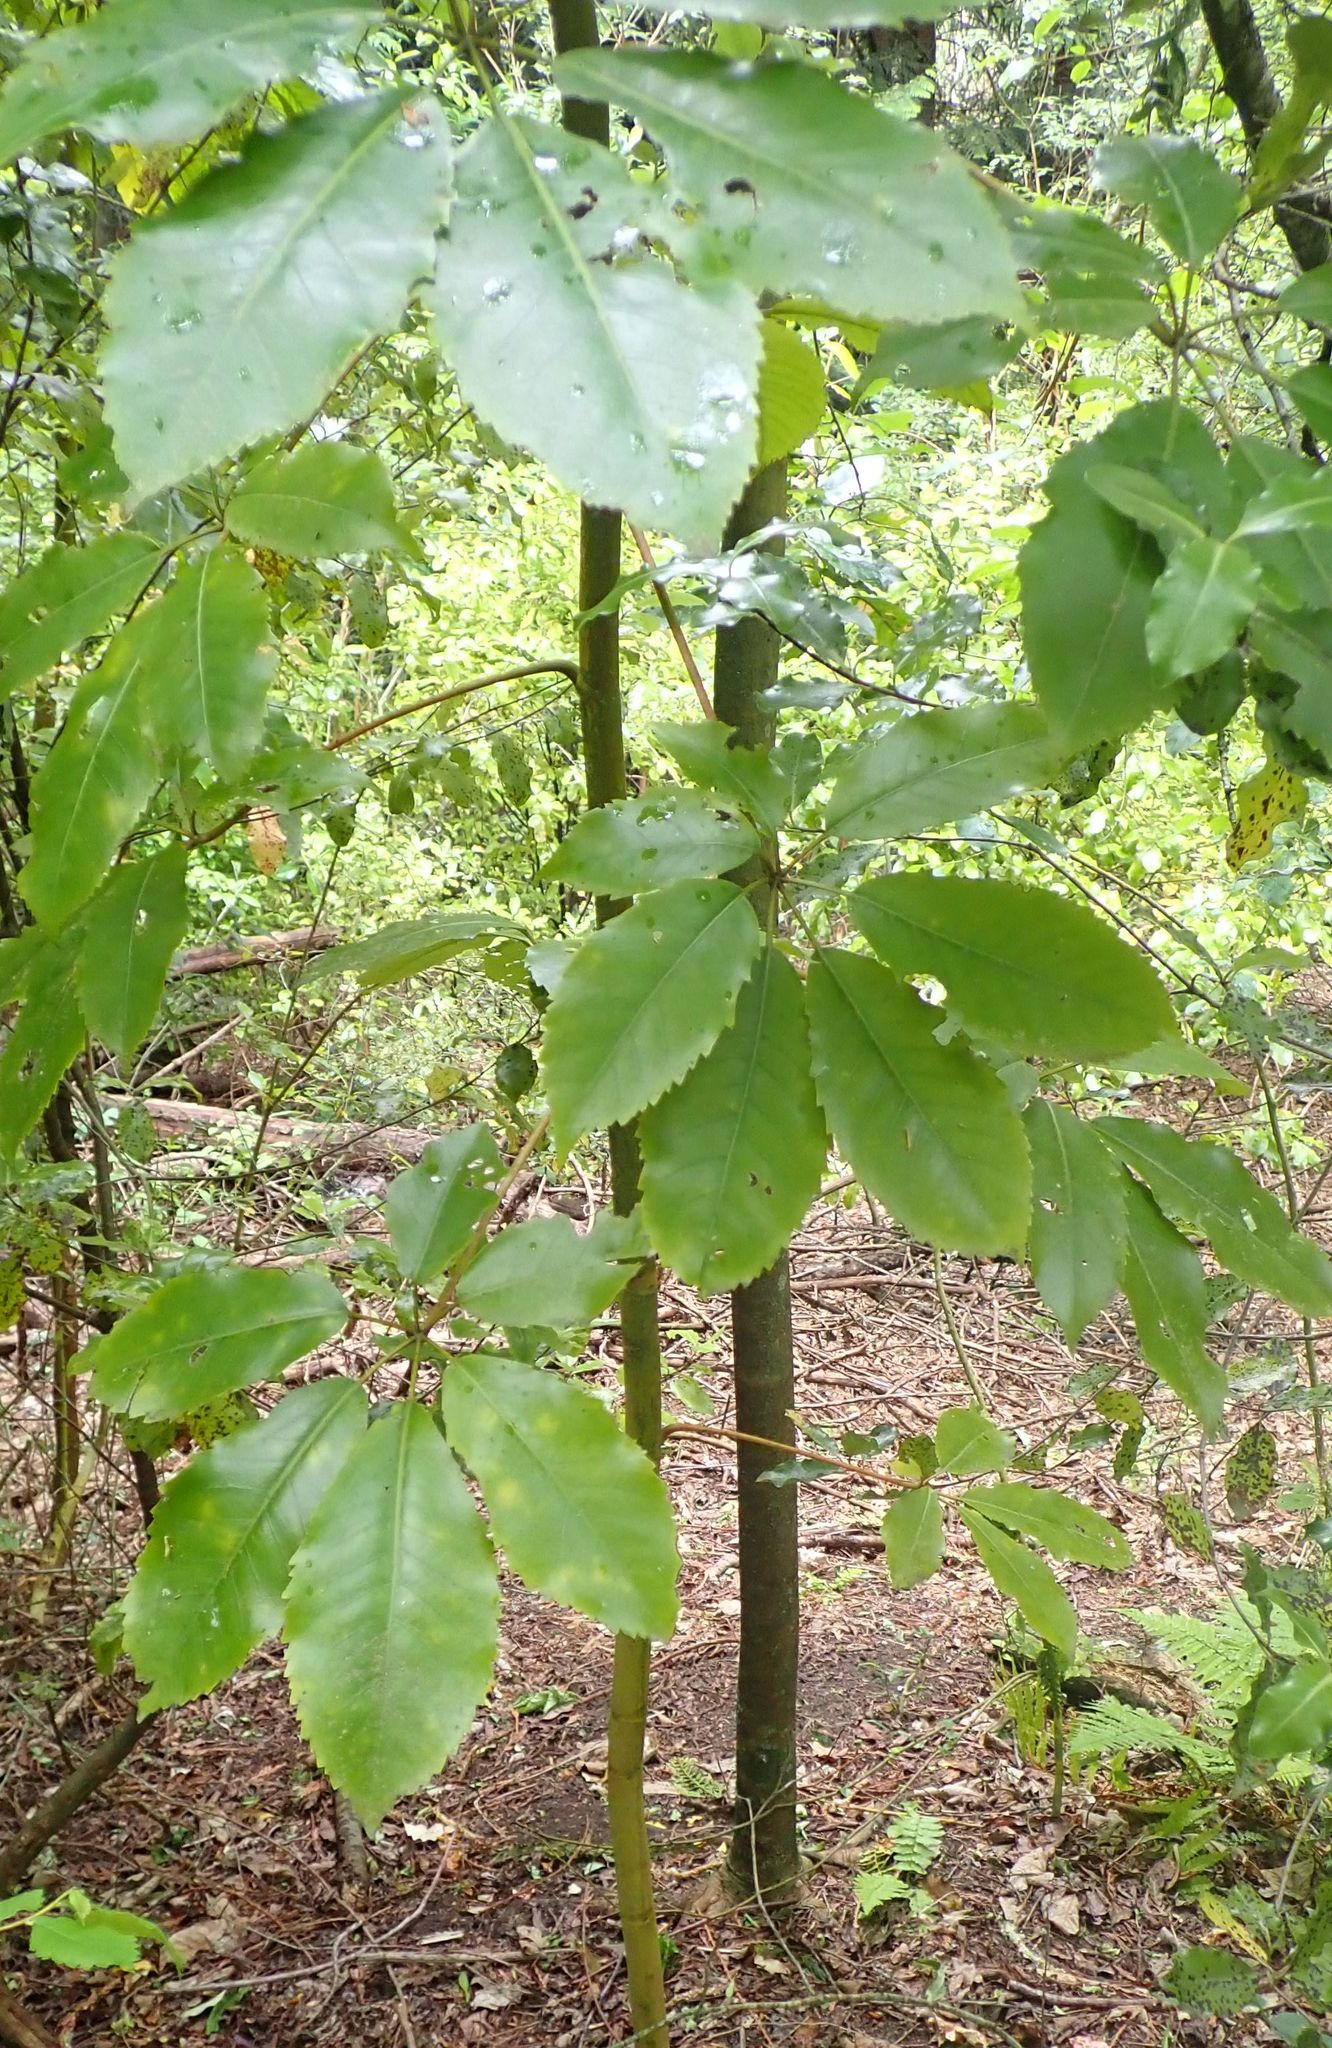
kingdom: Plantae
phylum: Tracheophyta
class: Magnoliopsida
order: Apiales
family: Araliaceae
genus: Neopanax
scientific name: Neopanax arboreus
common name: Five-fingers
